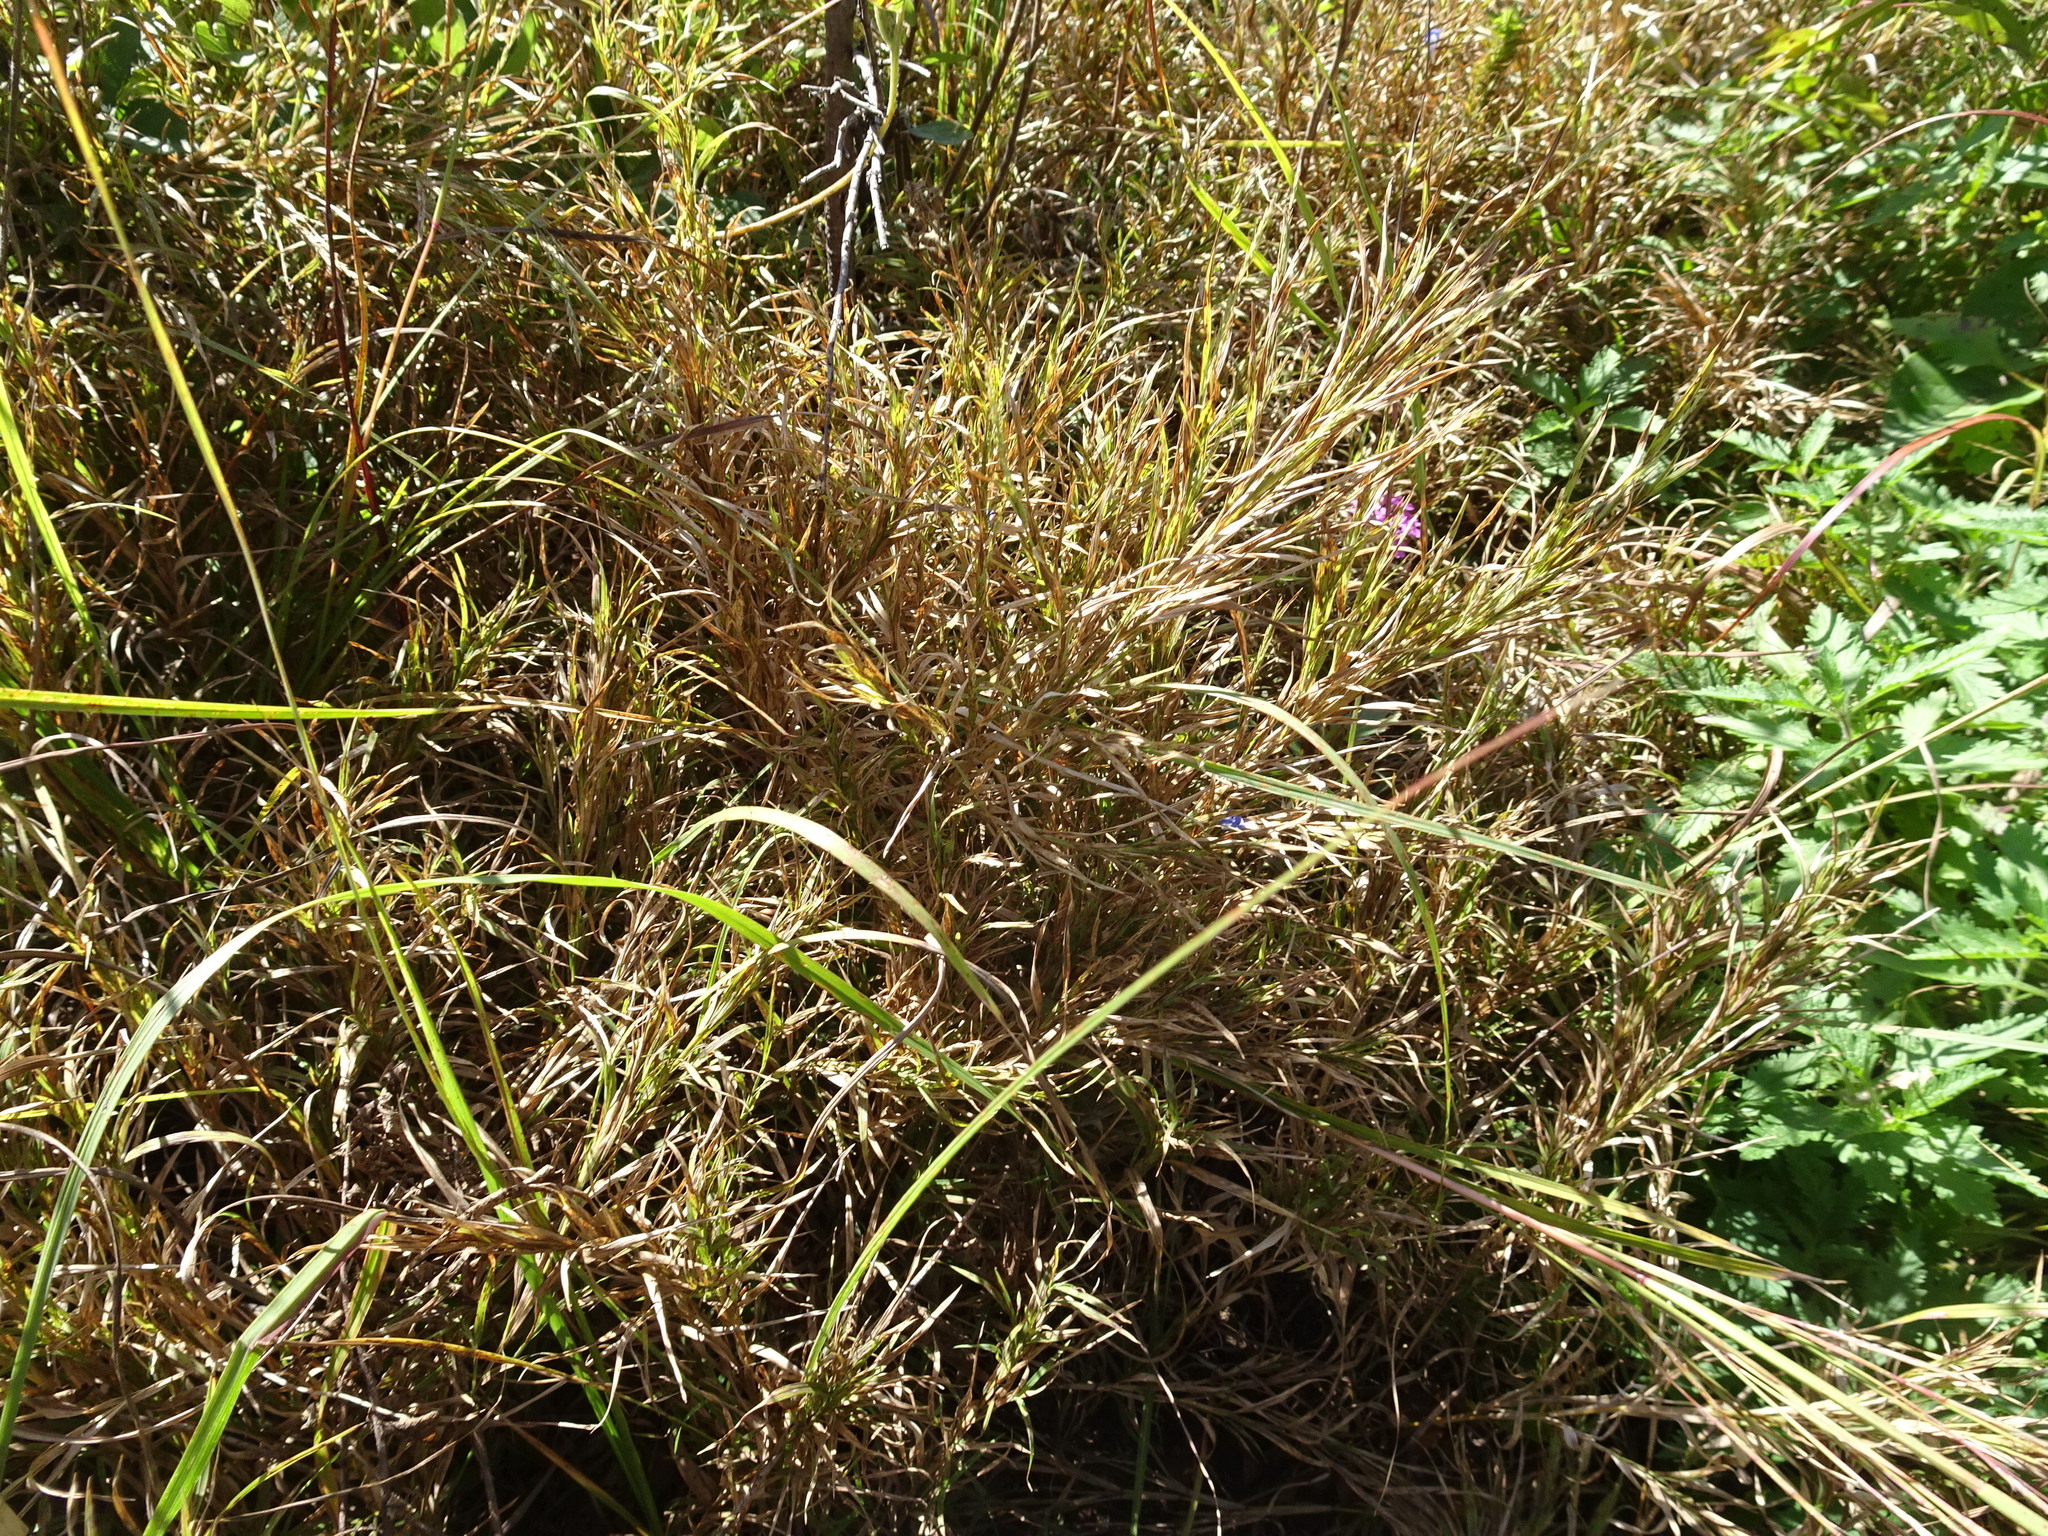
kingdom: Plantae
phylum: Tracheophyta
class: Liliopsida
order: Poales
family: Poaceae
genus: Muhlenbergia
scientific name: Muhlenbergia frondosa
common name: Common satingrass
